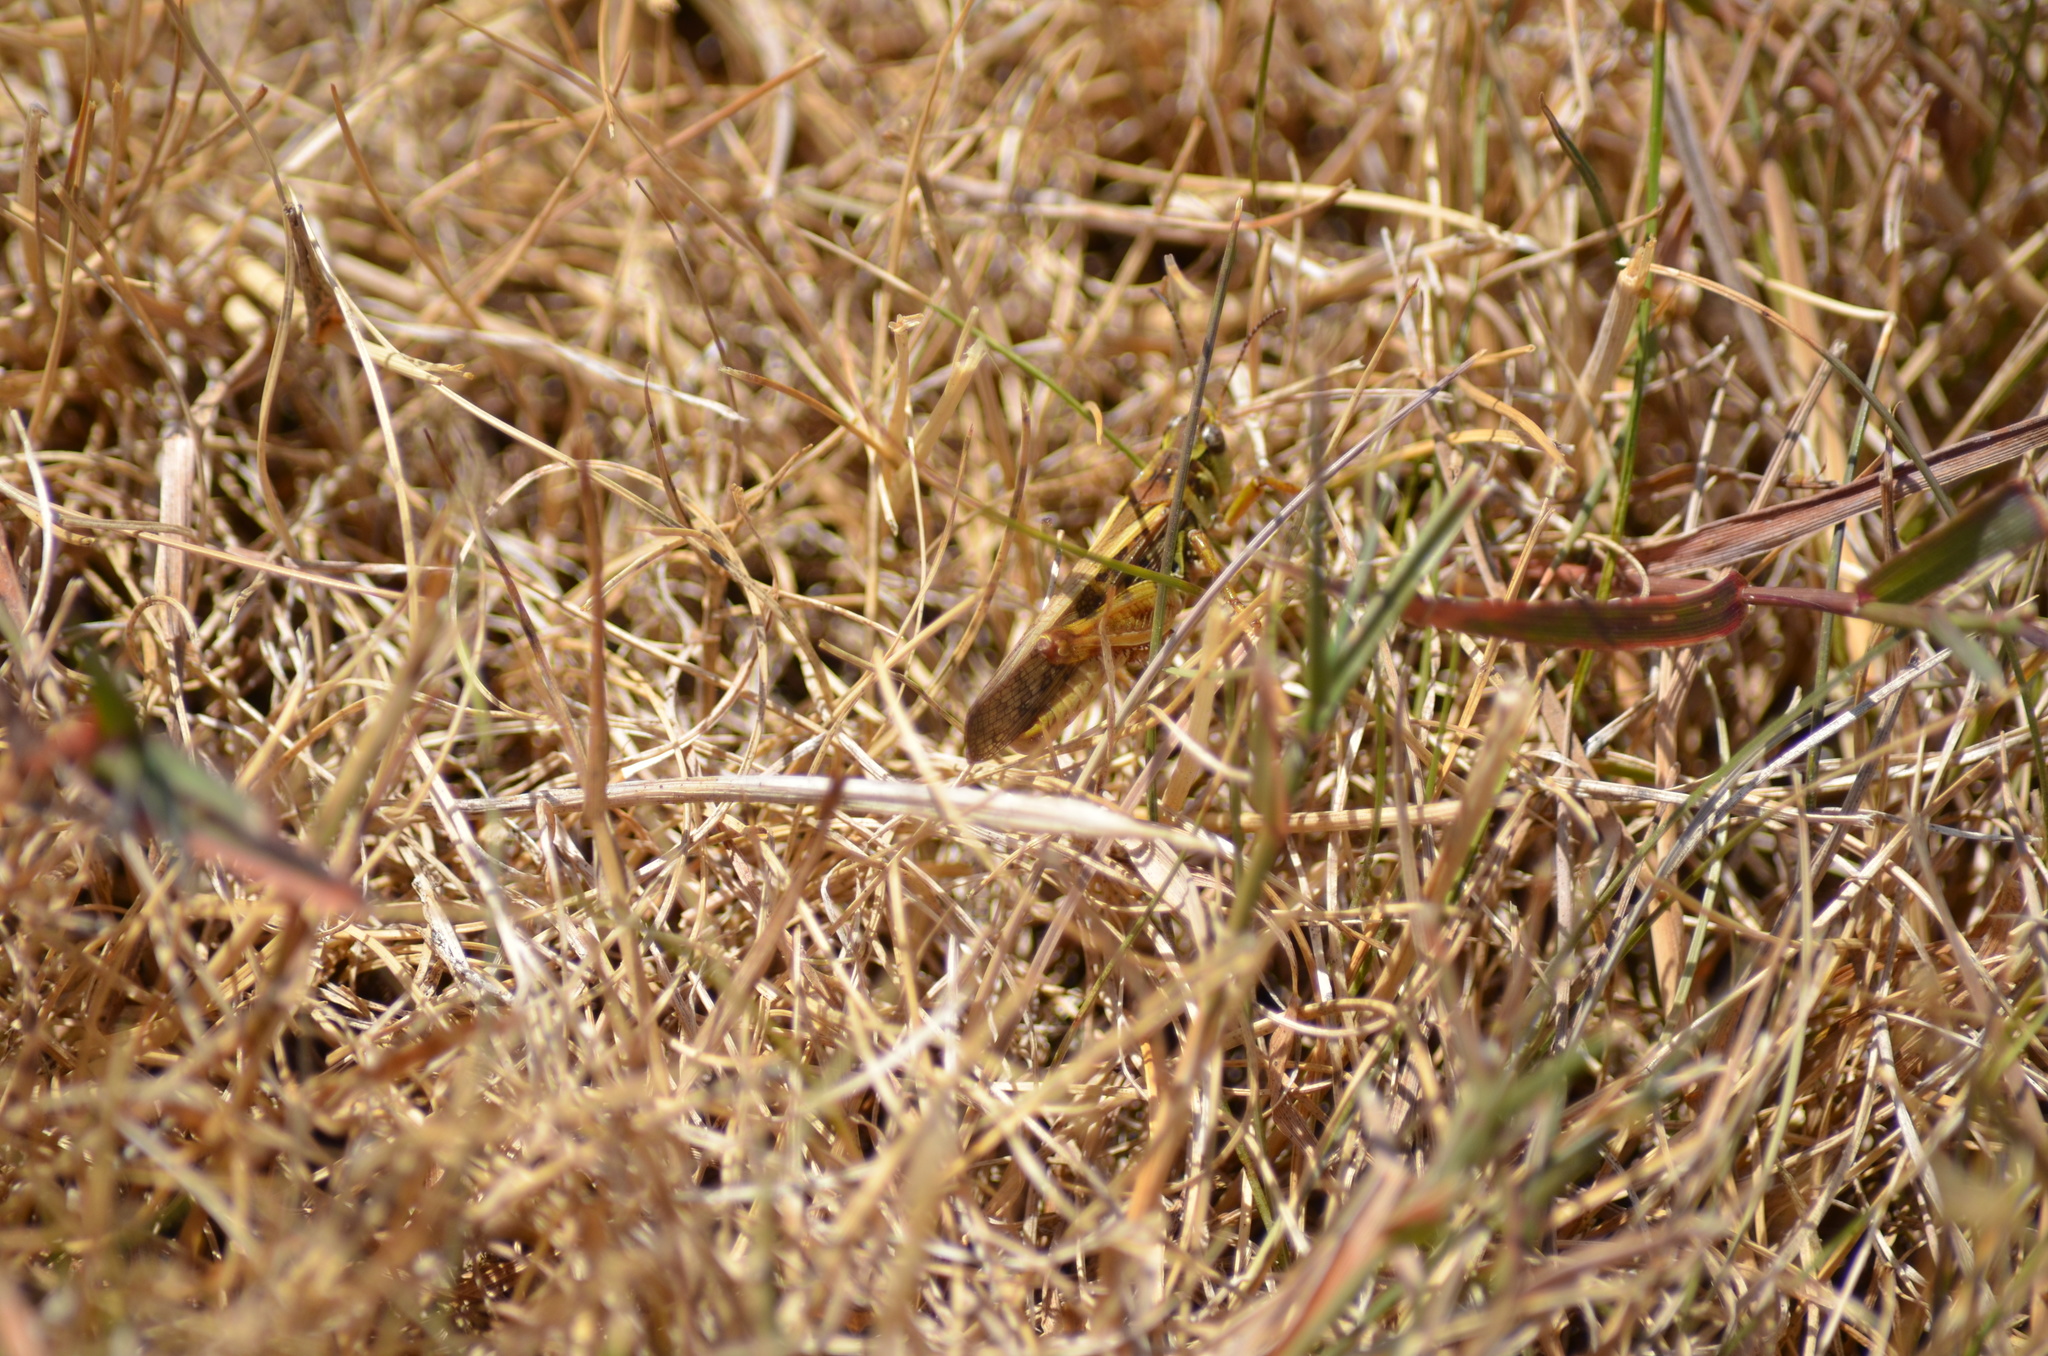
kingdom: Animalia
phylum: Arthropoda
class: Insecta
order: Orthoptera
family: Acrididae
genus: Camnula
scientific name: Camnula pellucida
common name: Clear-winged grasshopper
